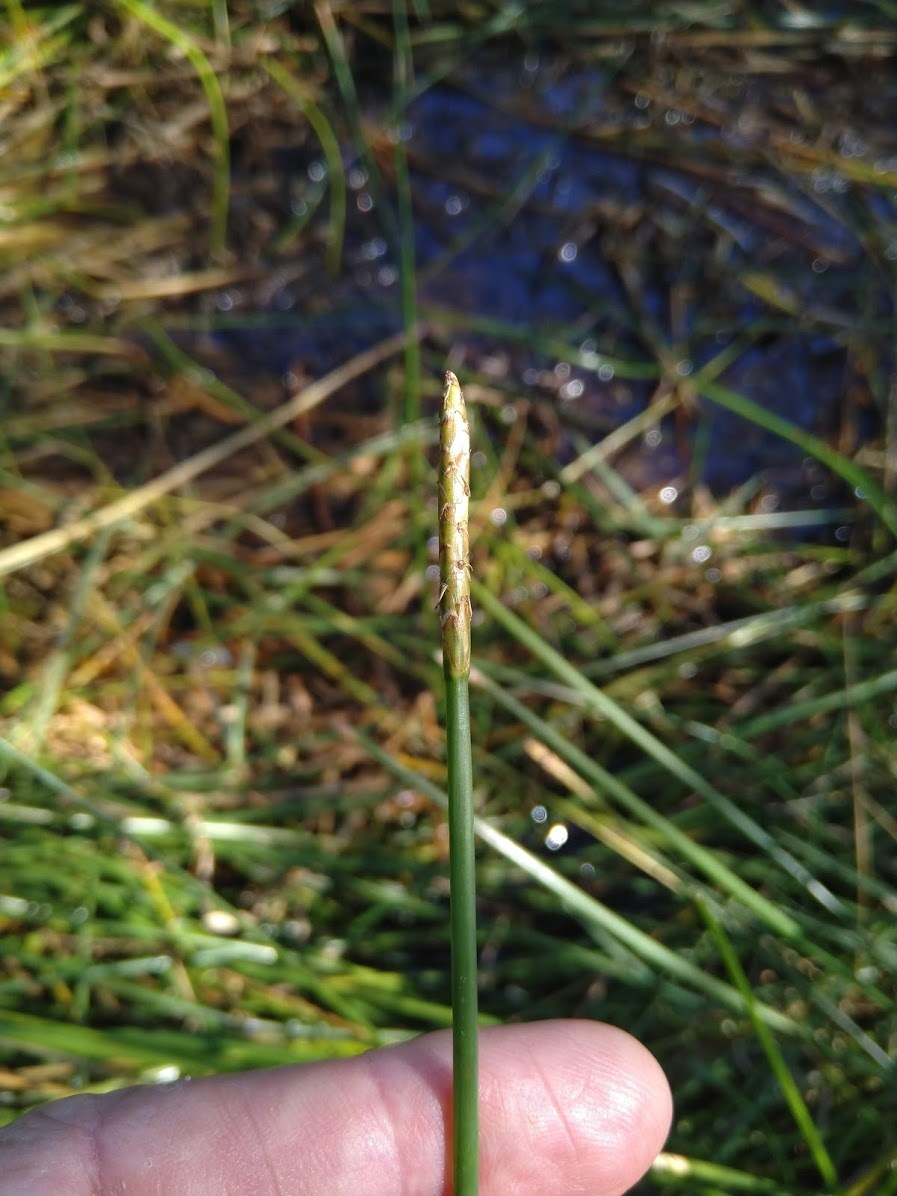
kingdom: Plantae
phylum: Tracheophyta
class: Liliopsida
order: Poales
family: Cyperaceae
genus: Eleocharis
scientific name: Eleocharis dulcis
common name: Chinese water chestnut
